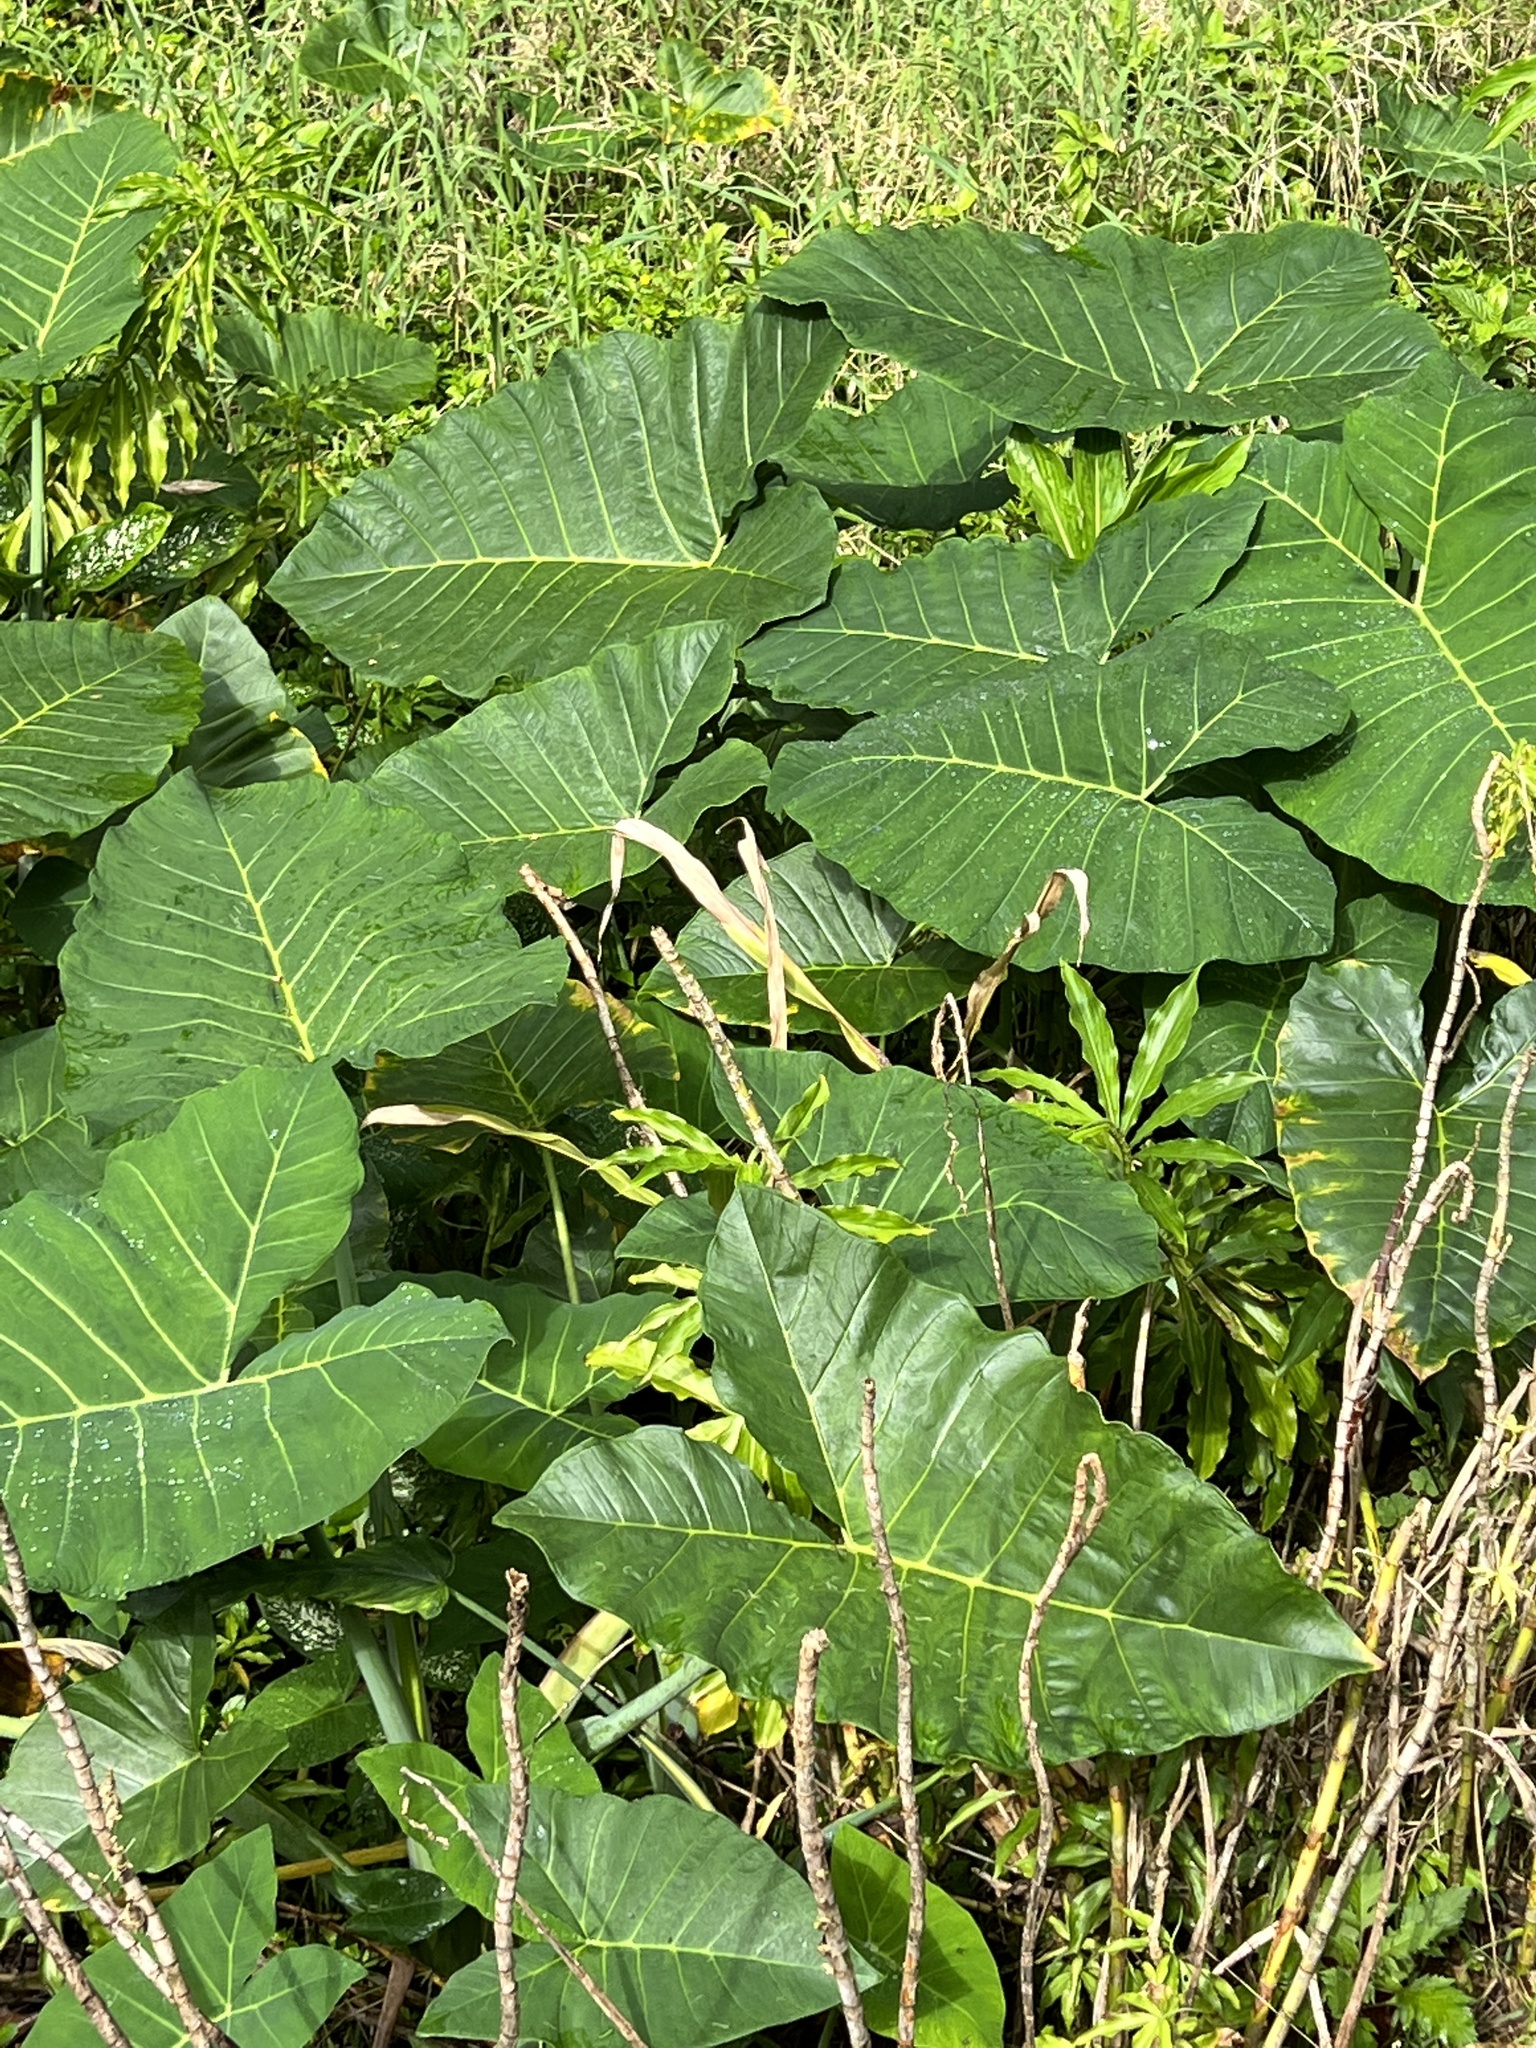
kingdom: Plantae
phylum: Tracheophyta
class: Liliopsida
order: Alismatales
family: Araceae
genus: Xanthosoma
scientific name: Xanthosoma robustum
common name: Capote
